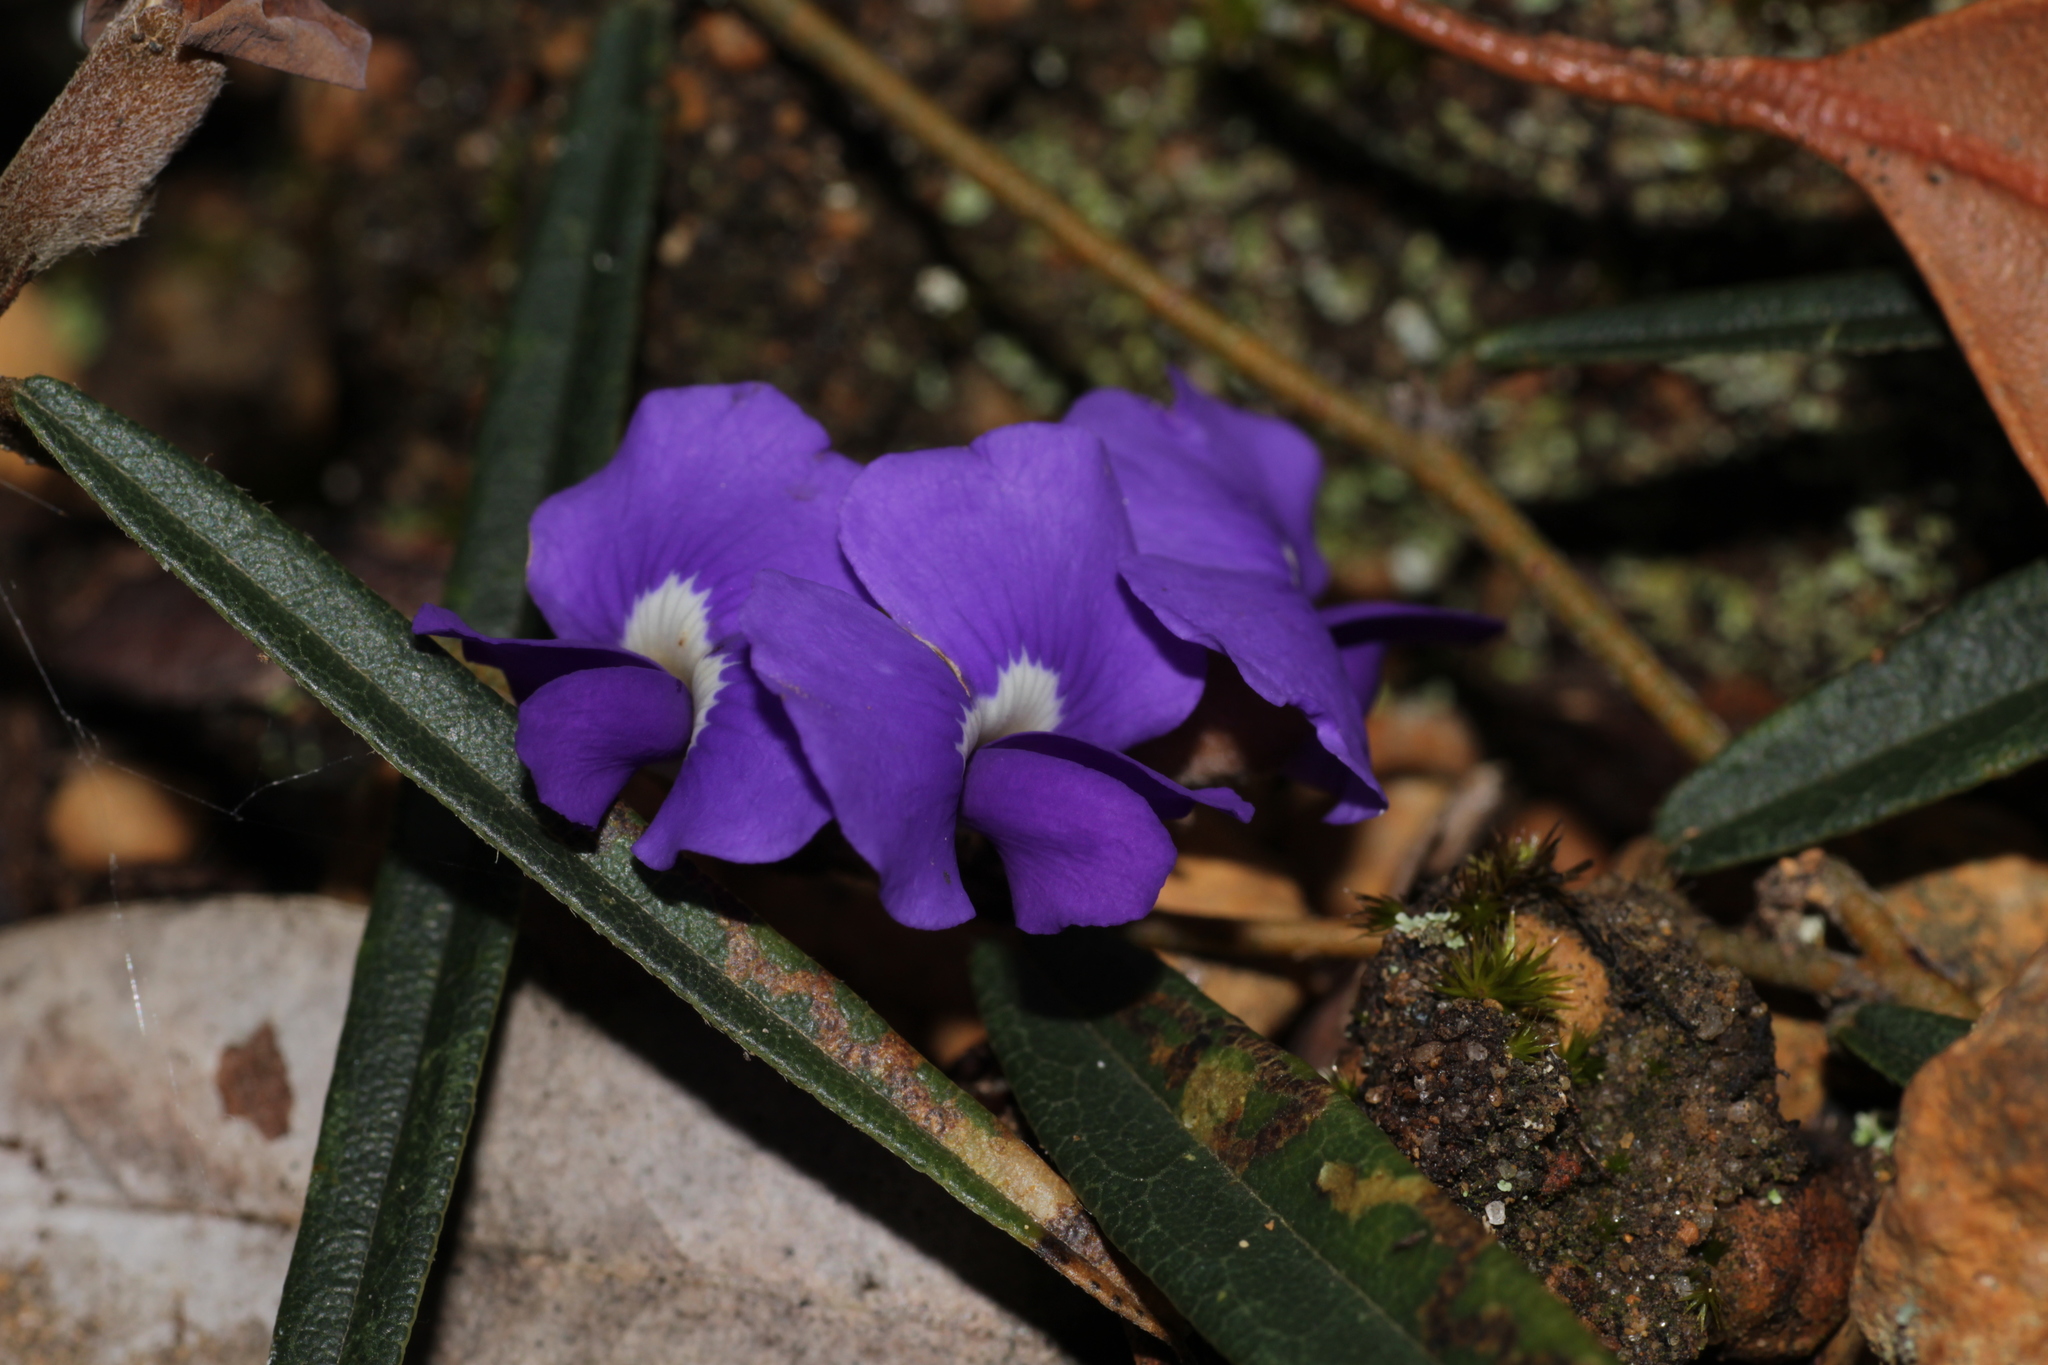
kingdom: Plantae
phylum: Tracheophyta
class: Magnoliopsida
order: Fabales
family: Fabaceae
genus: Hovea
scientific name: Hovea trisperma
